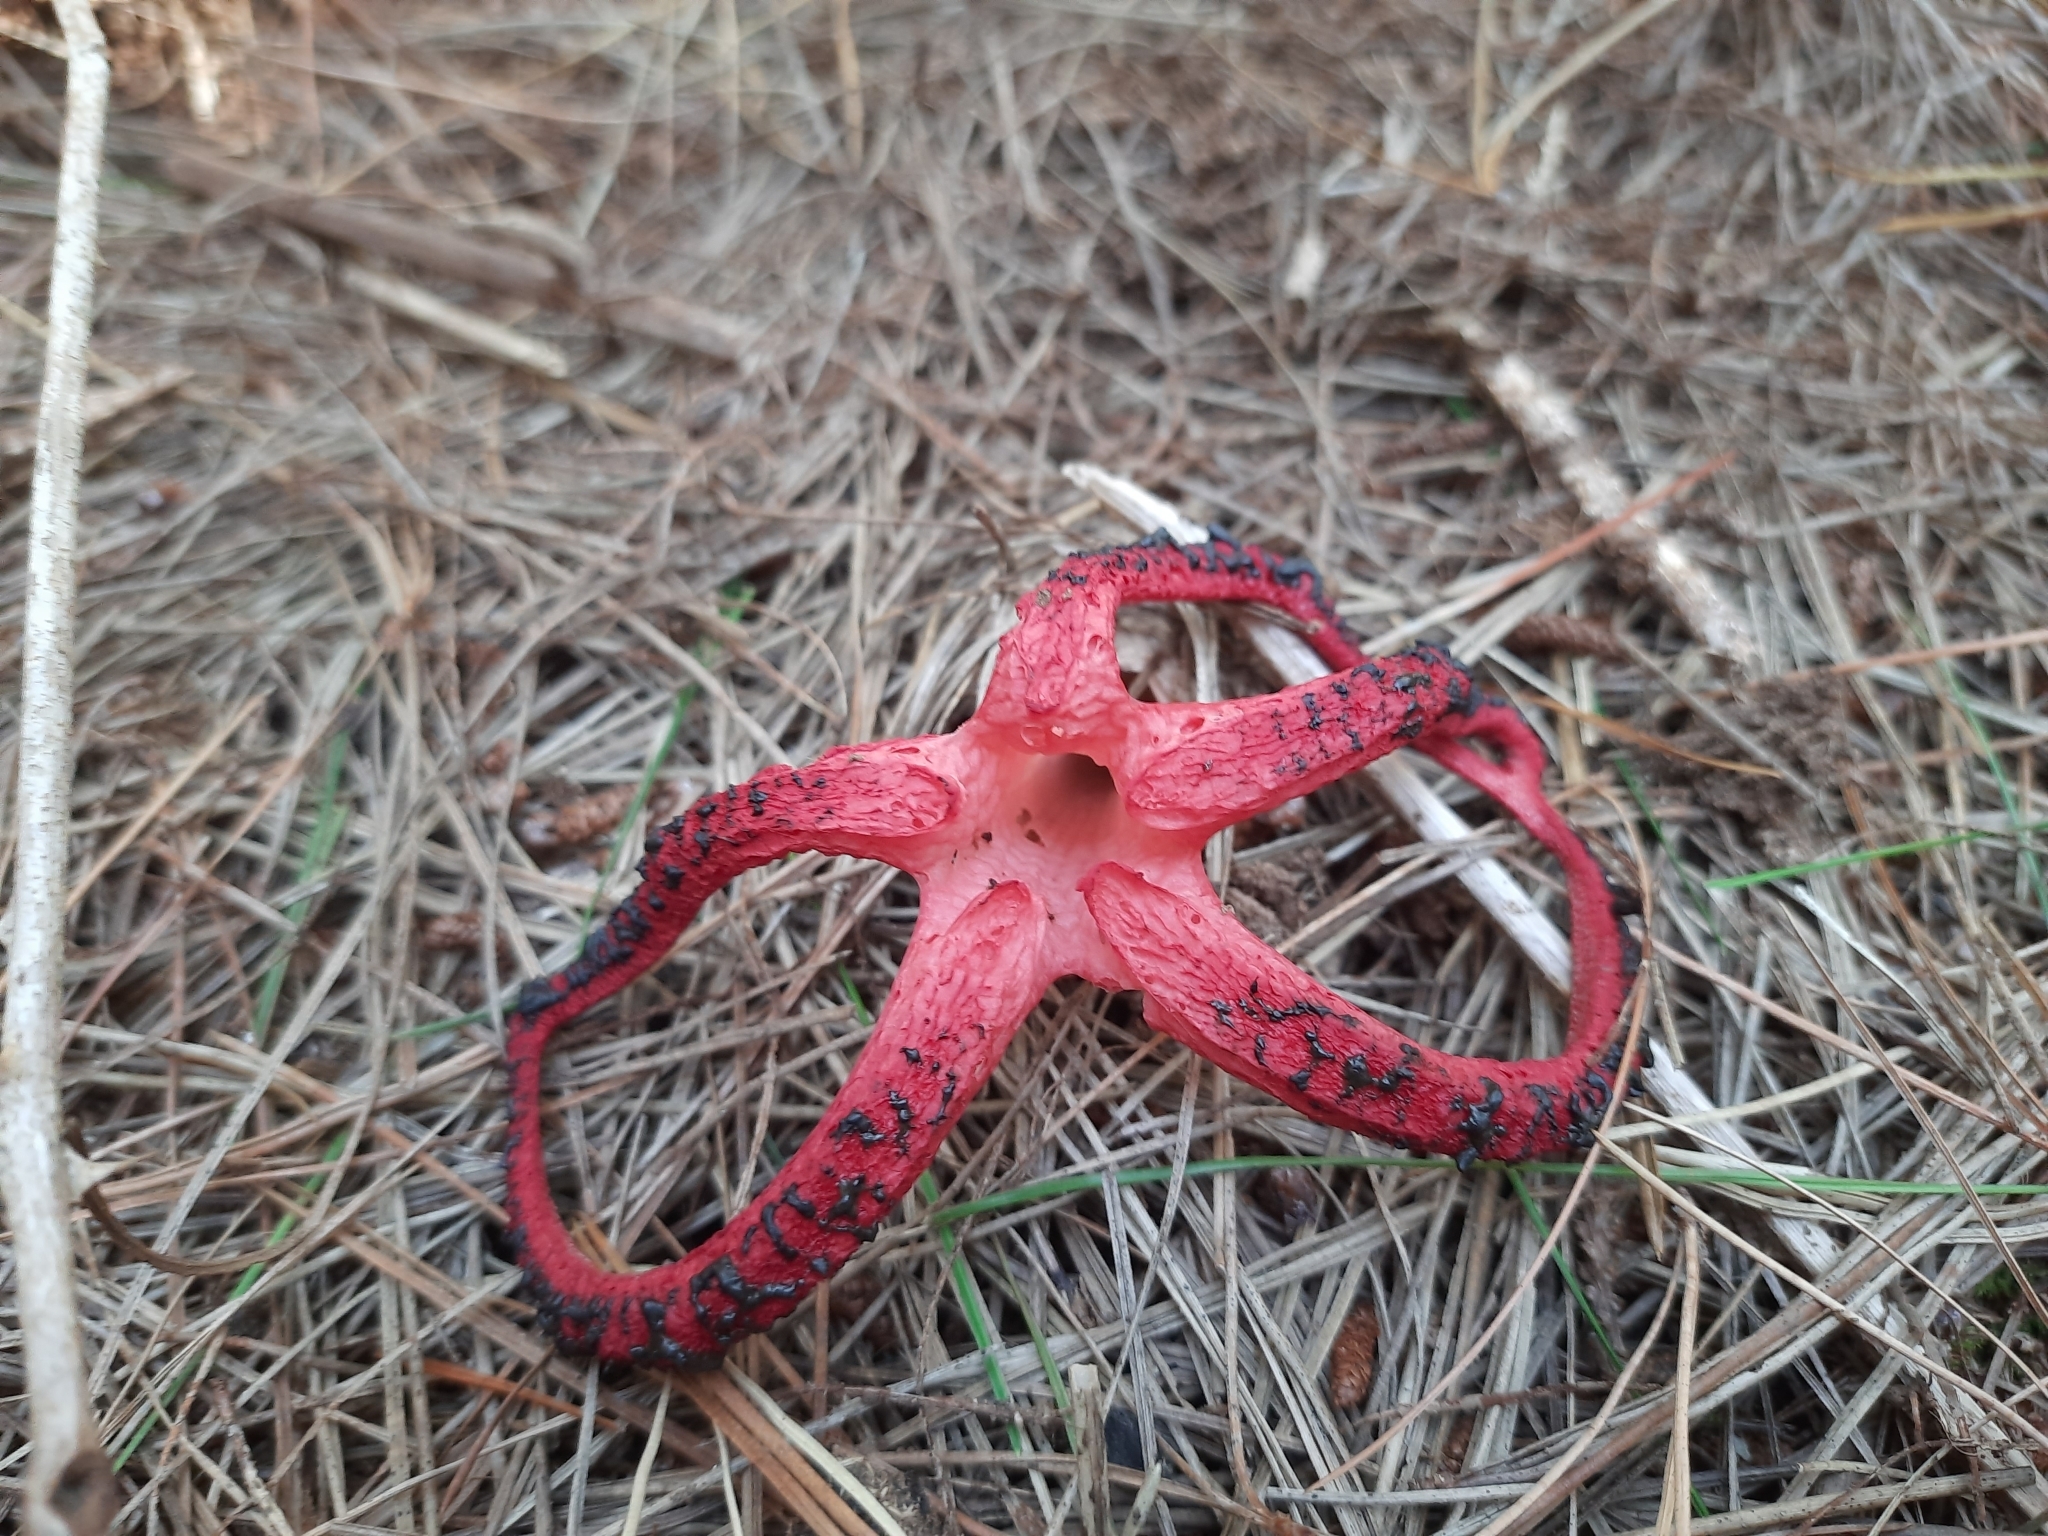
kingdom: Fungi
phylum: Basidiomycota
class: Agaricomycetes
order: Phallales
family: Phallaceae
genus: Clathrus
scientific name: Clathrus archeri
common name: Devil's fingers
